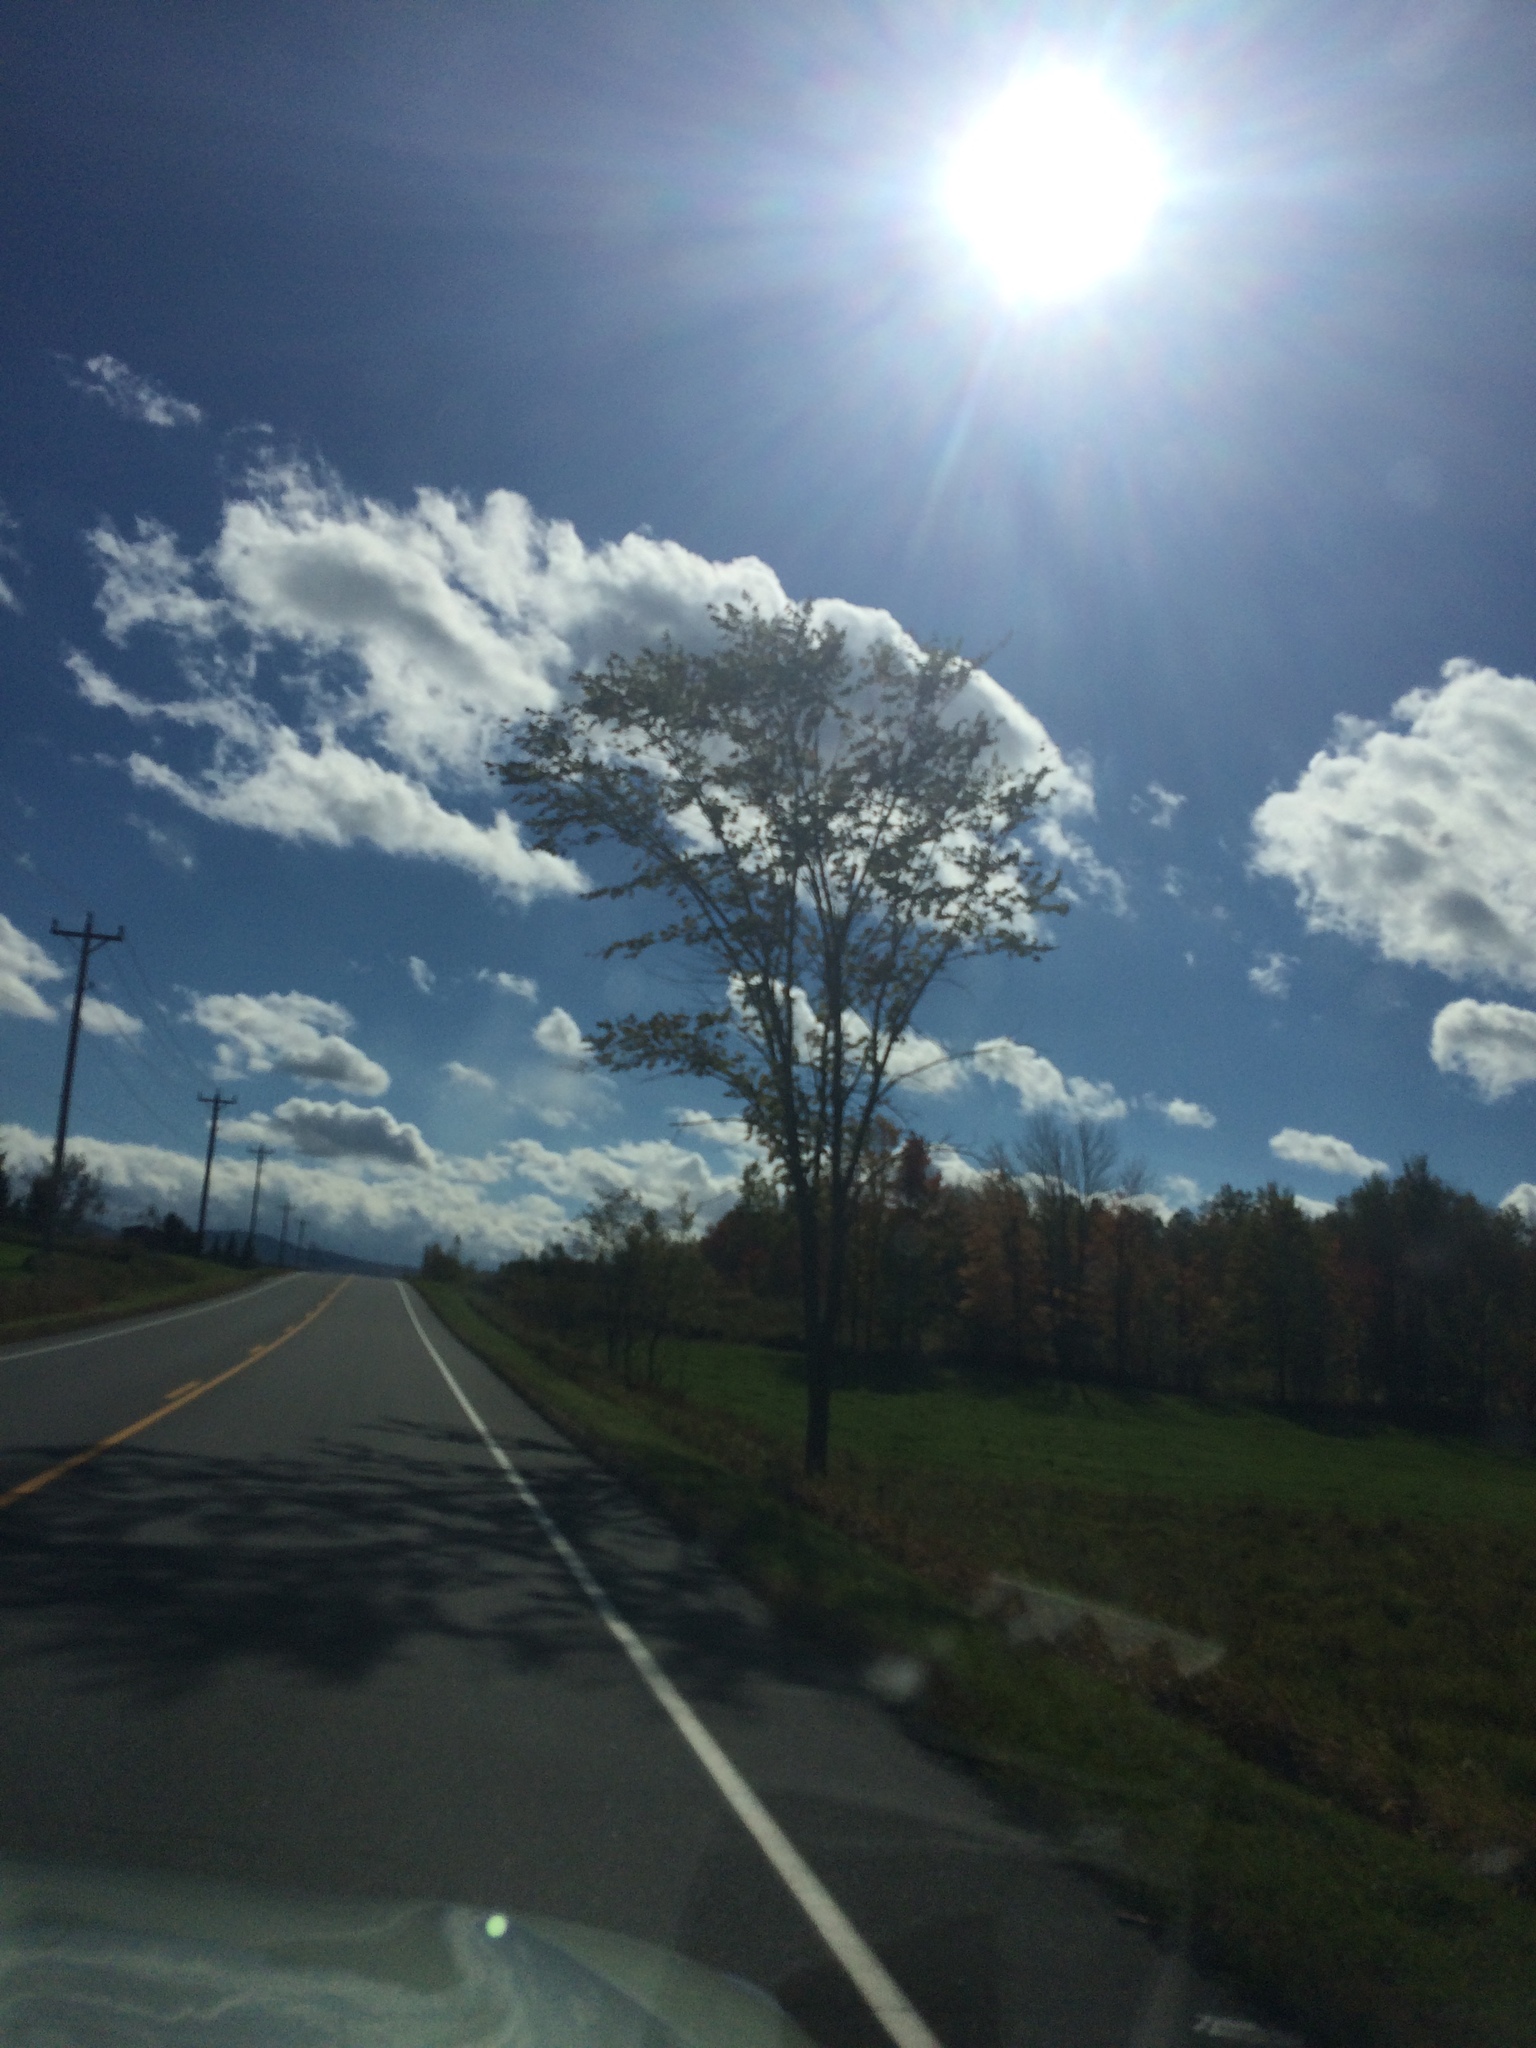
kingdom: Plantae
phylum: Tracheophyta
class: Magnoliopsida
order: Rosales
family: Ulmaceae
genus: Ulmus
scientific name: Ulmus americana
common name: American elm
